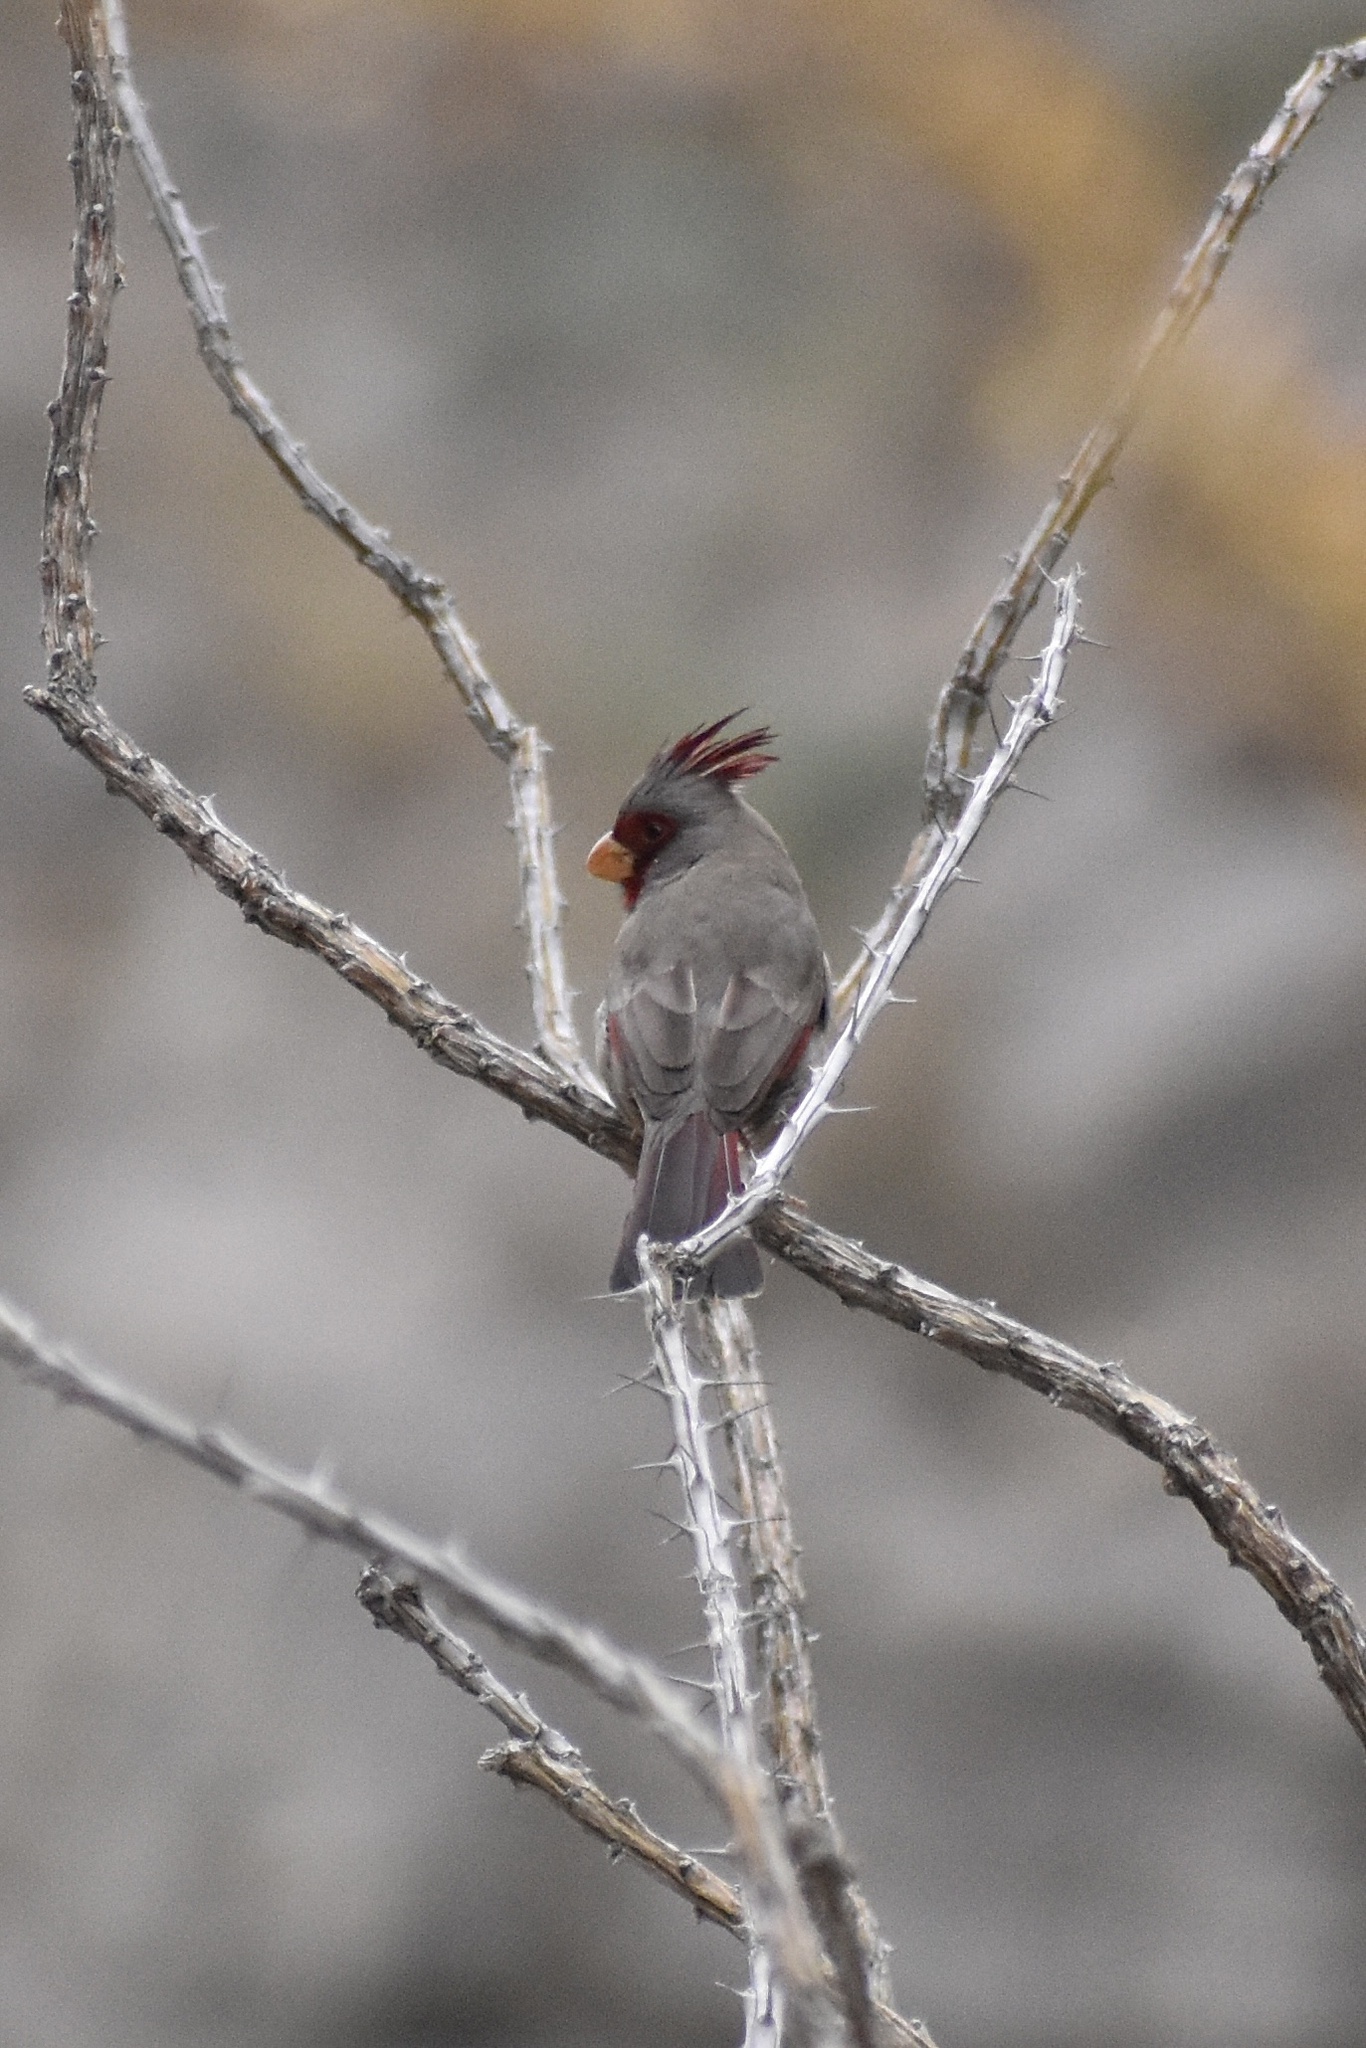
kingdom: Animalia
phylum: Chordata
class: Aves
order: Passeriformes
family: Cardinalidae
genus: Cardinalis
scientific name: Cardinalis sinuatus
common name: Pyrrhuloxia
